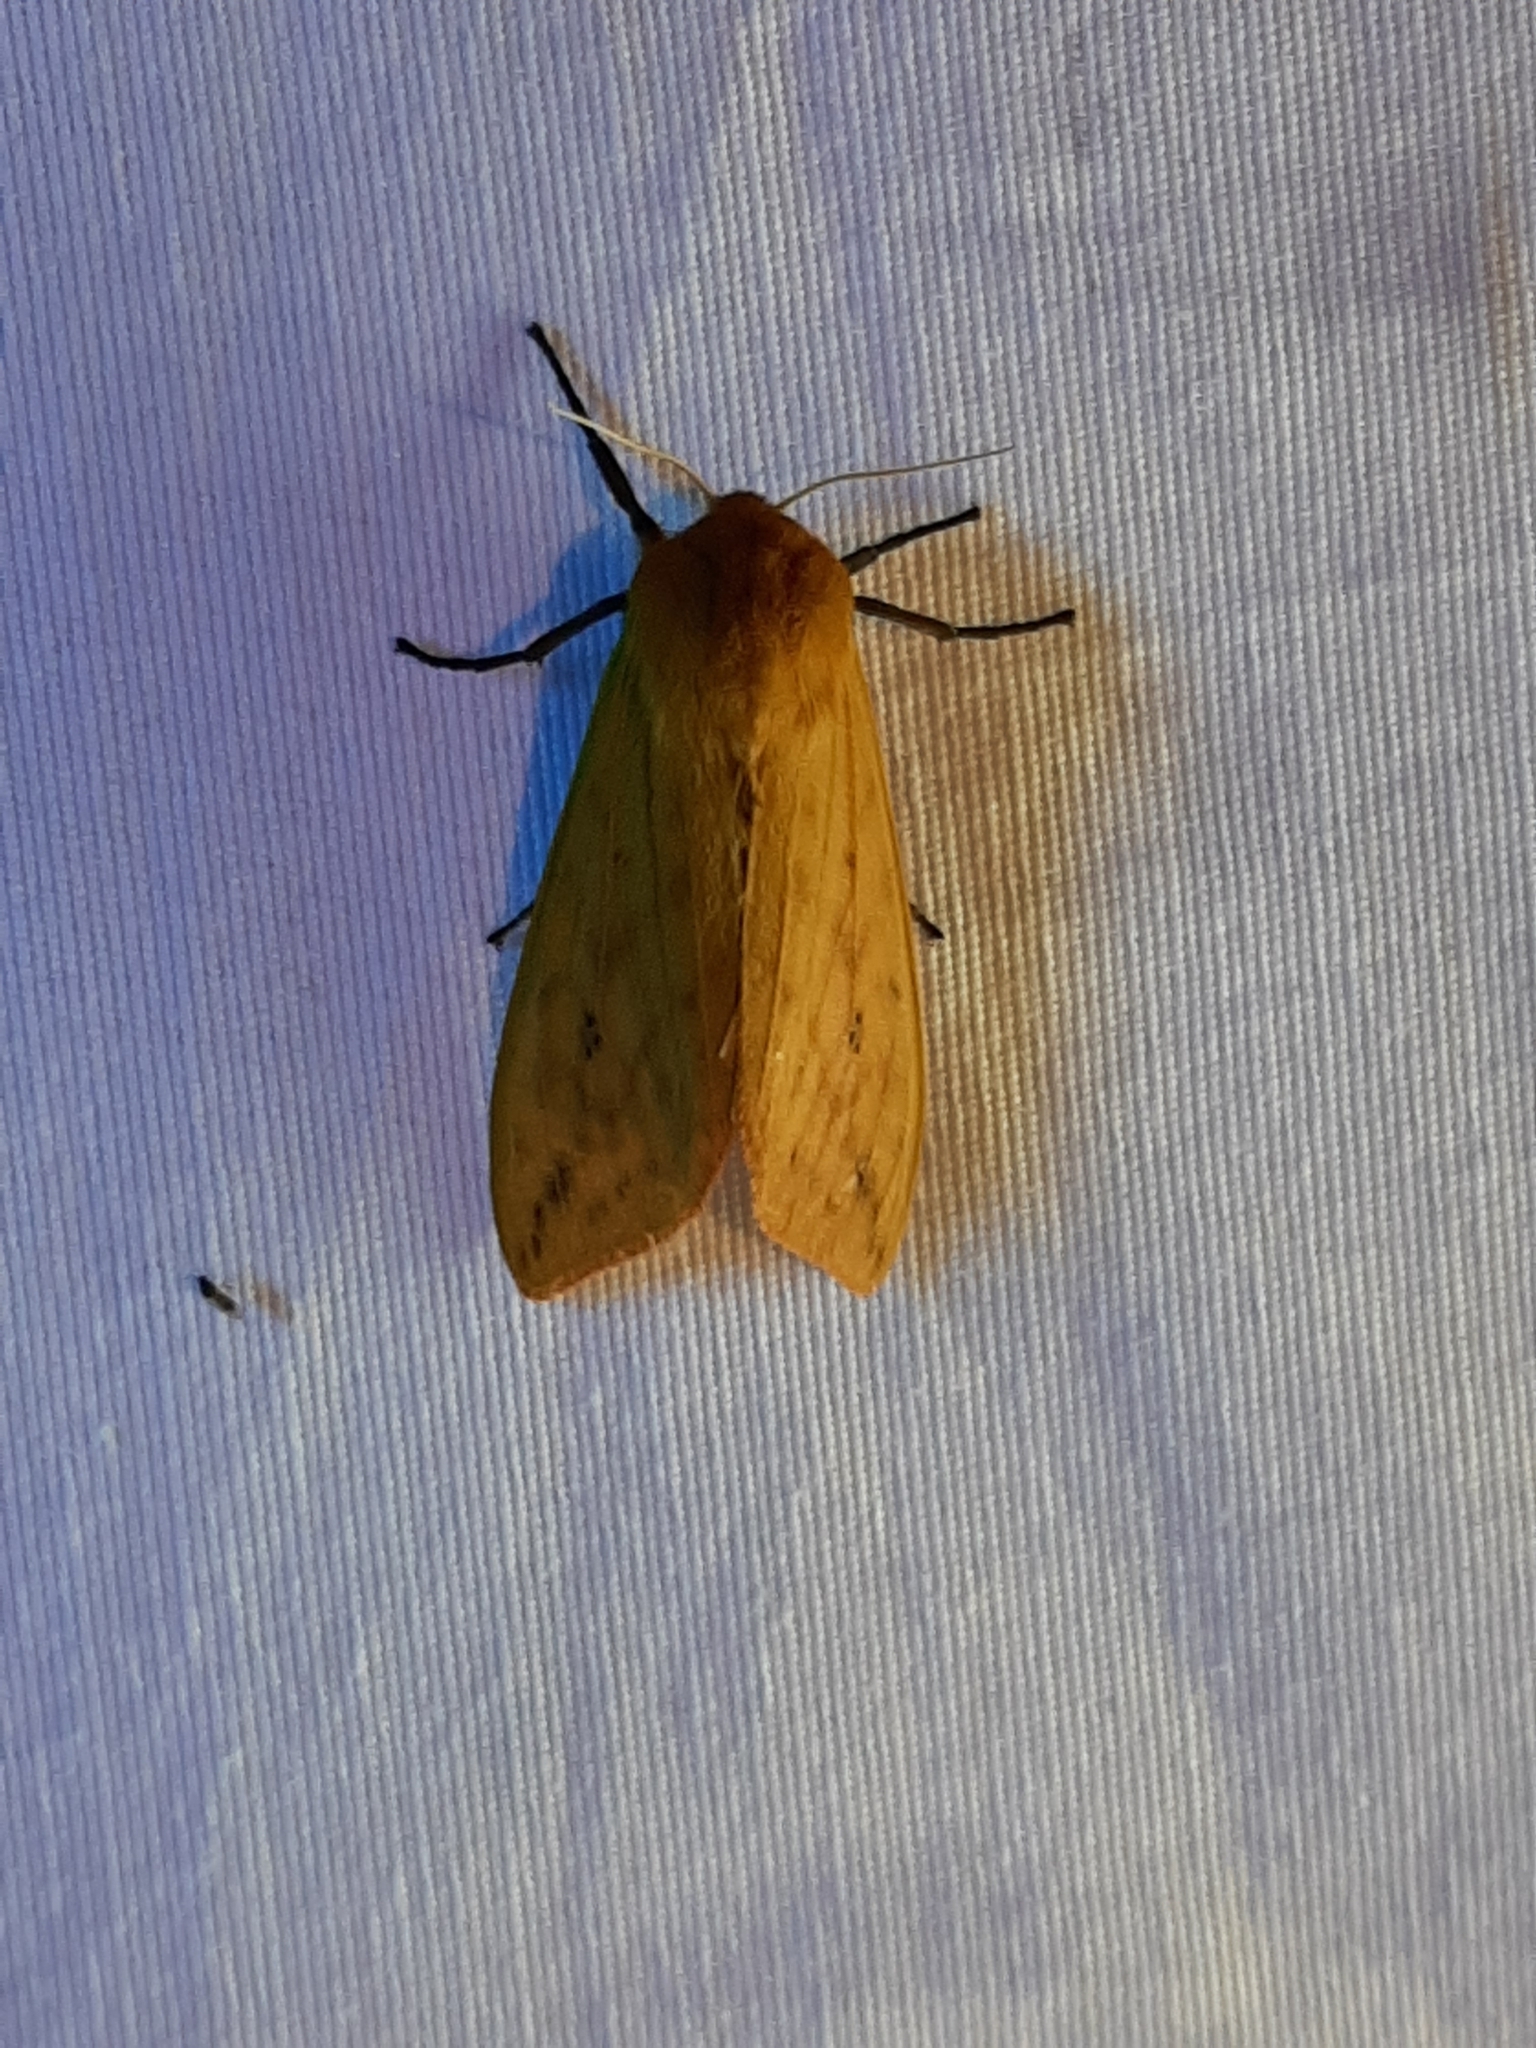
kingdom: Animalia
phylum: Arthropoda
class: Insecta
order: Lepidoptera
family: Erebidae
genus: Pyrrharctia
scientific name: Pyrrharctia isabella
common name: Isabella tiger moth
